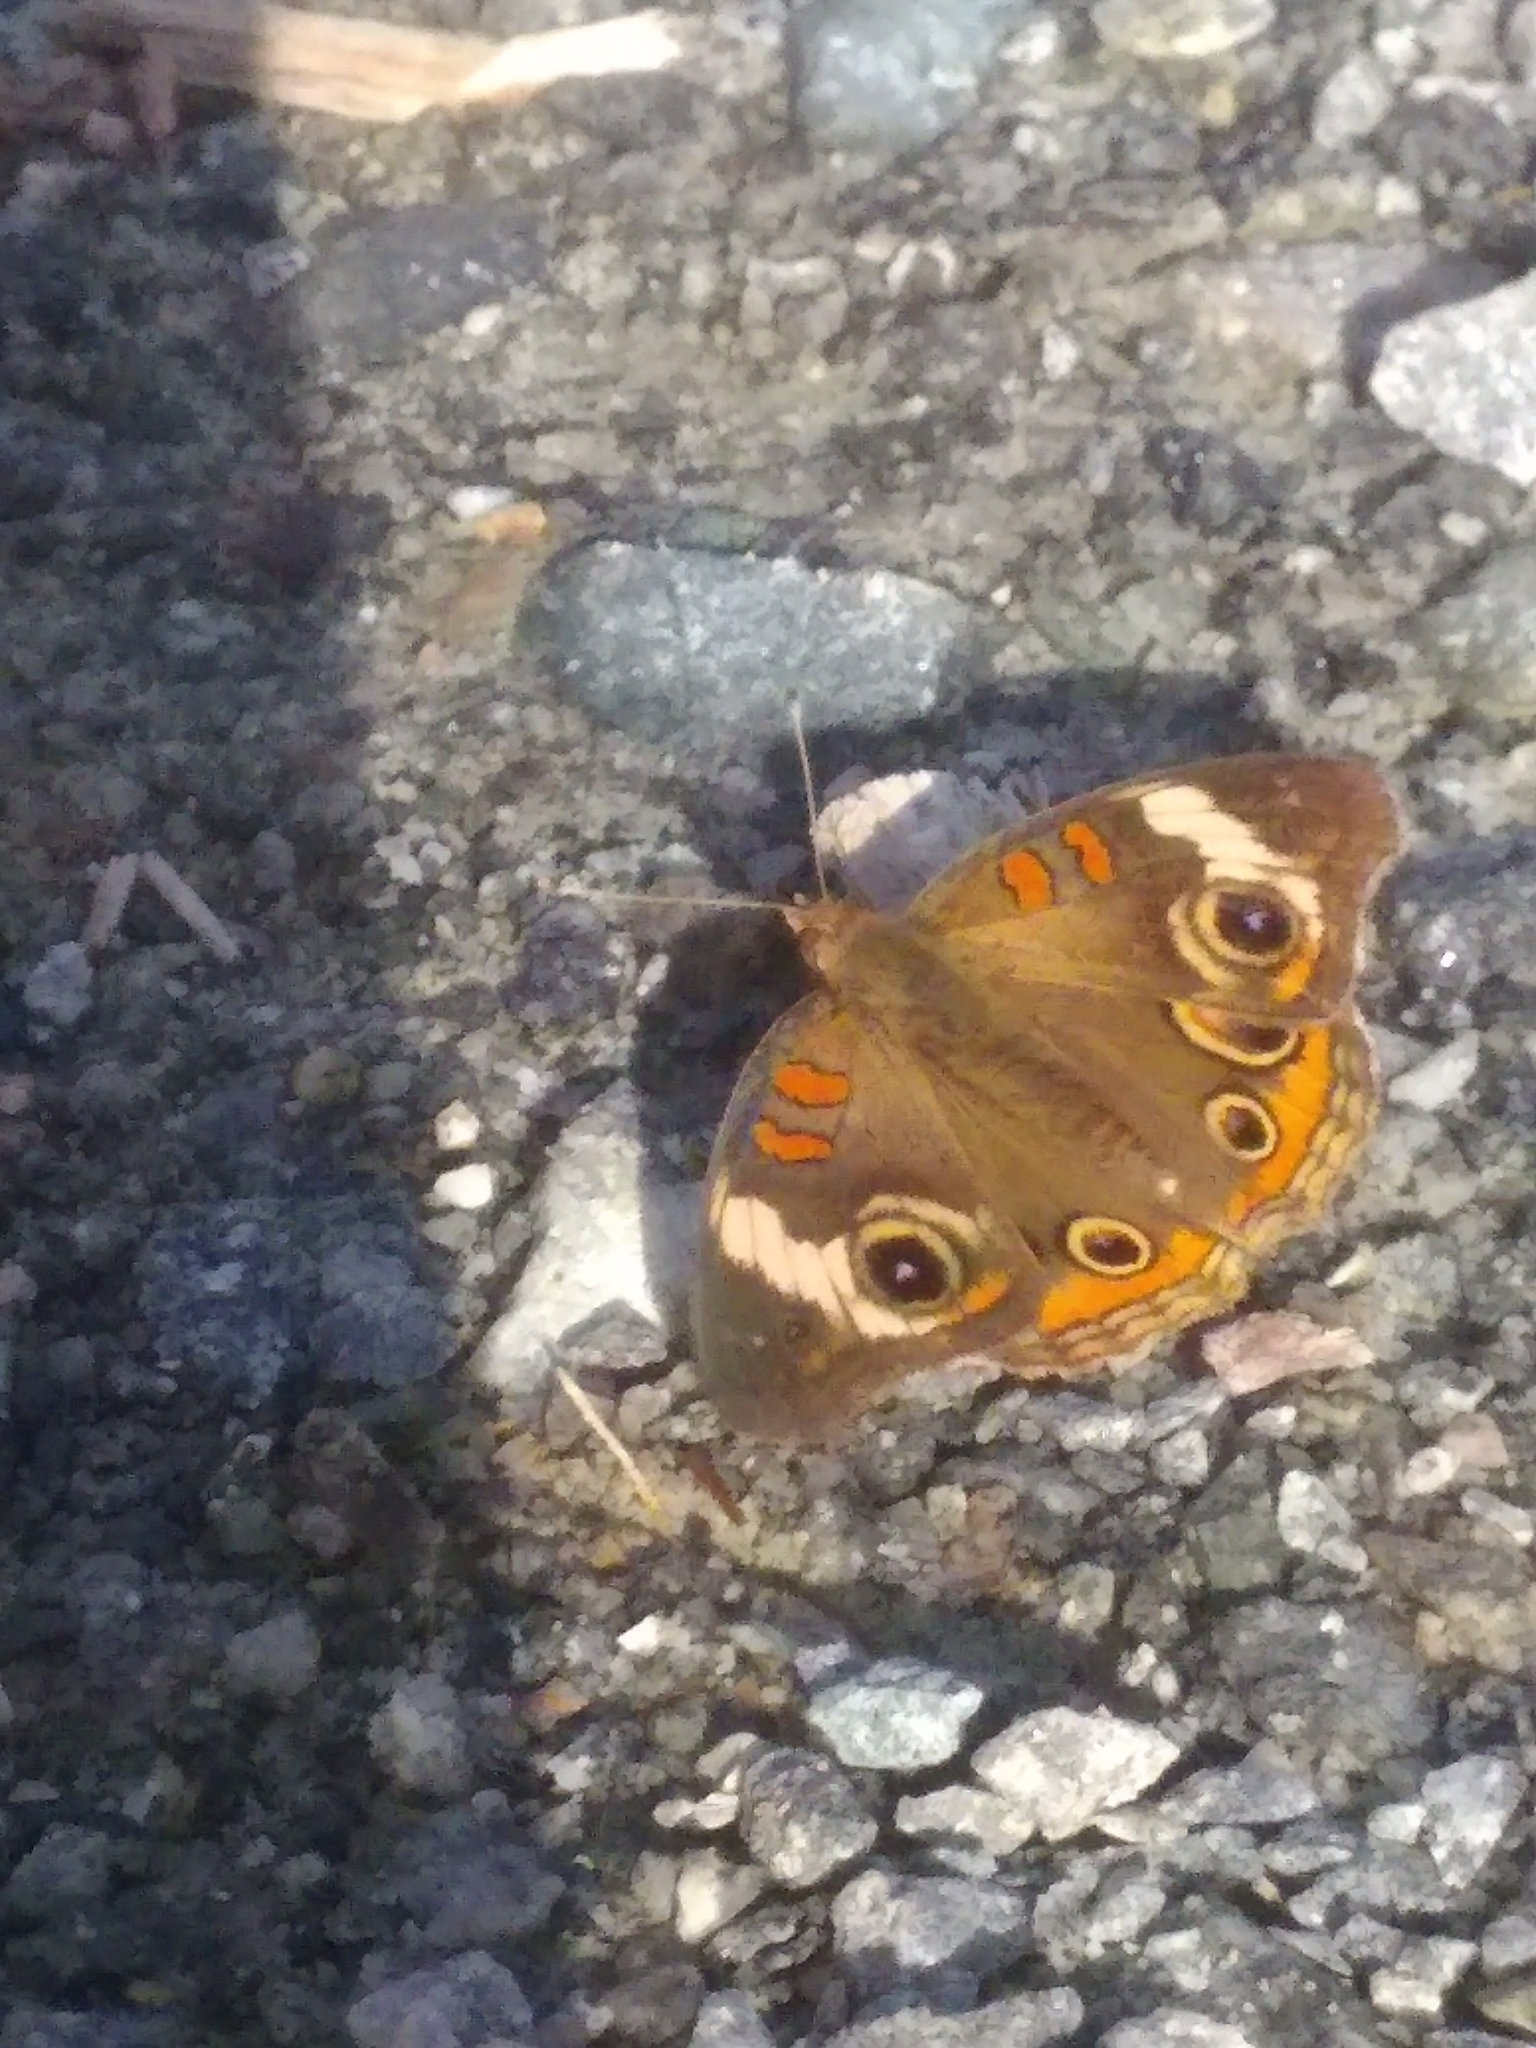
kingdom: Animalia
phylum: Arthropoda
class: Insecta
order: Lepidoptera
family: Nymphalidae
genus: Junonia
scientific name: Junonia coenia
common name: Common buckeye
